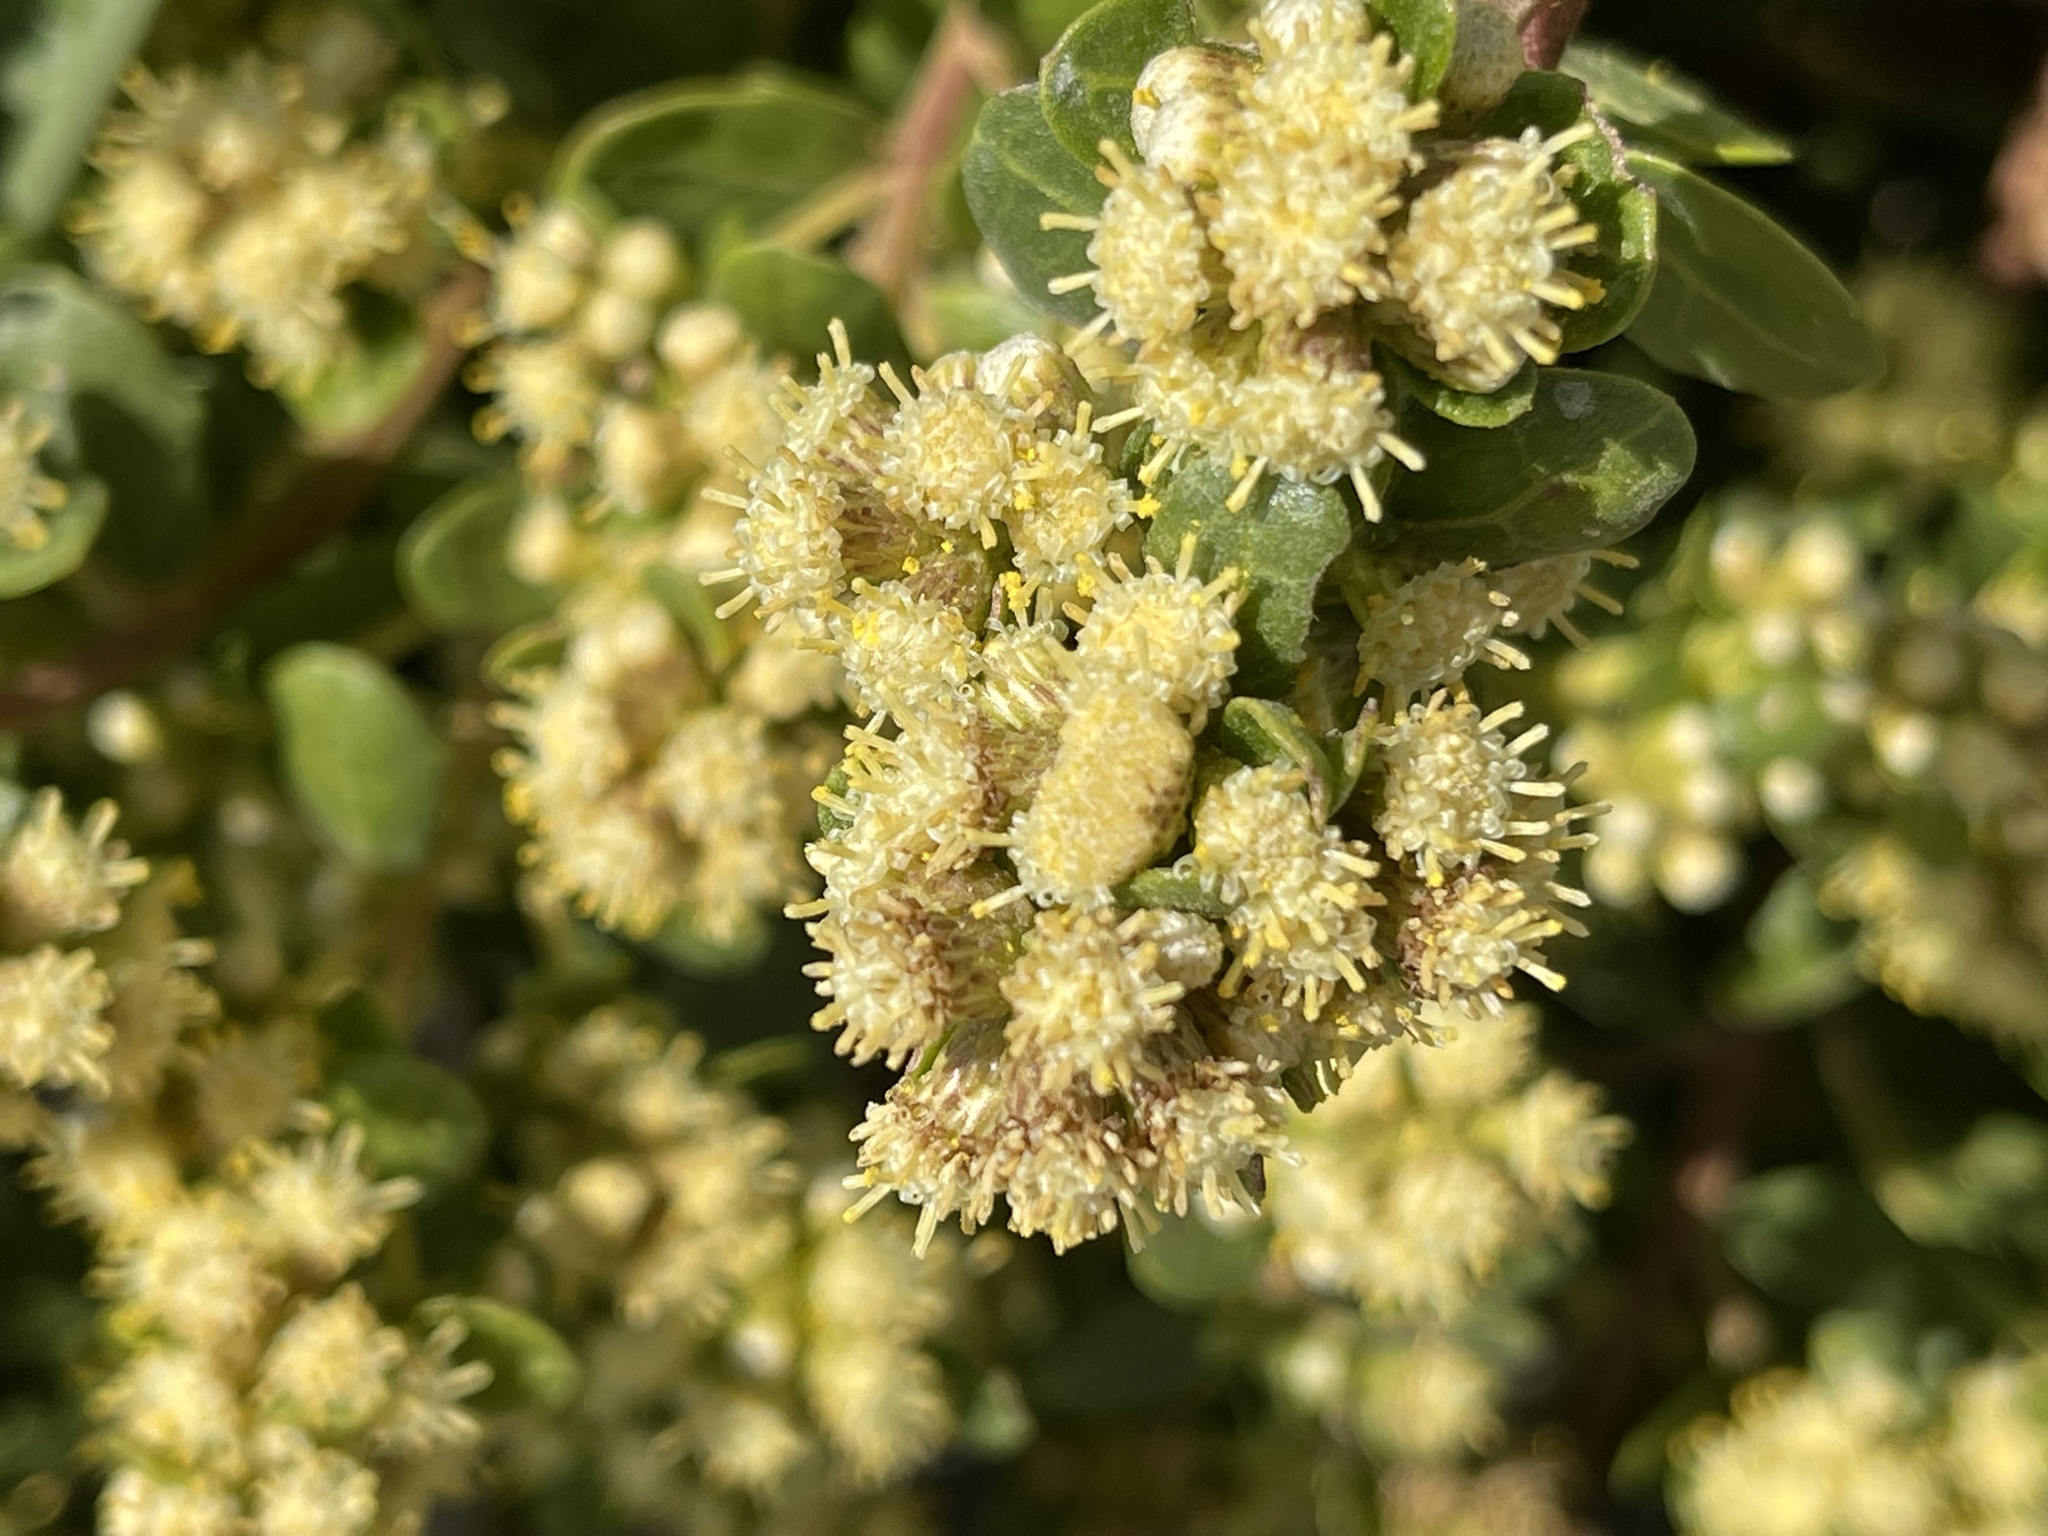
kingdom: Plantae
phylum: Tracheophyta
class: Magnoliopsida
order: Asterales
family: Asteraceae
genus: Baccharis
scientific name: Baccharis pilularis
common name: Coyotebrush
